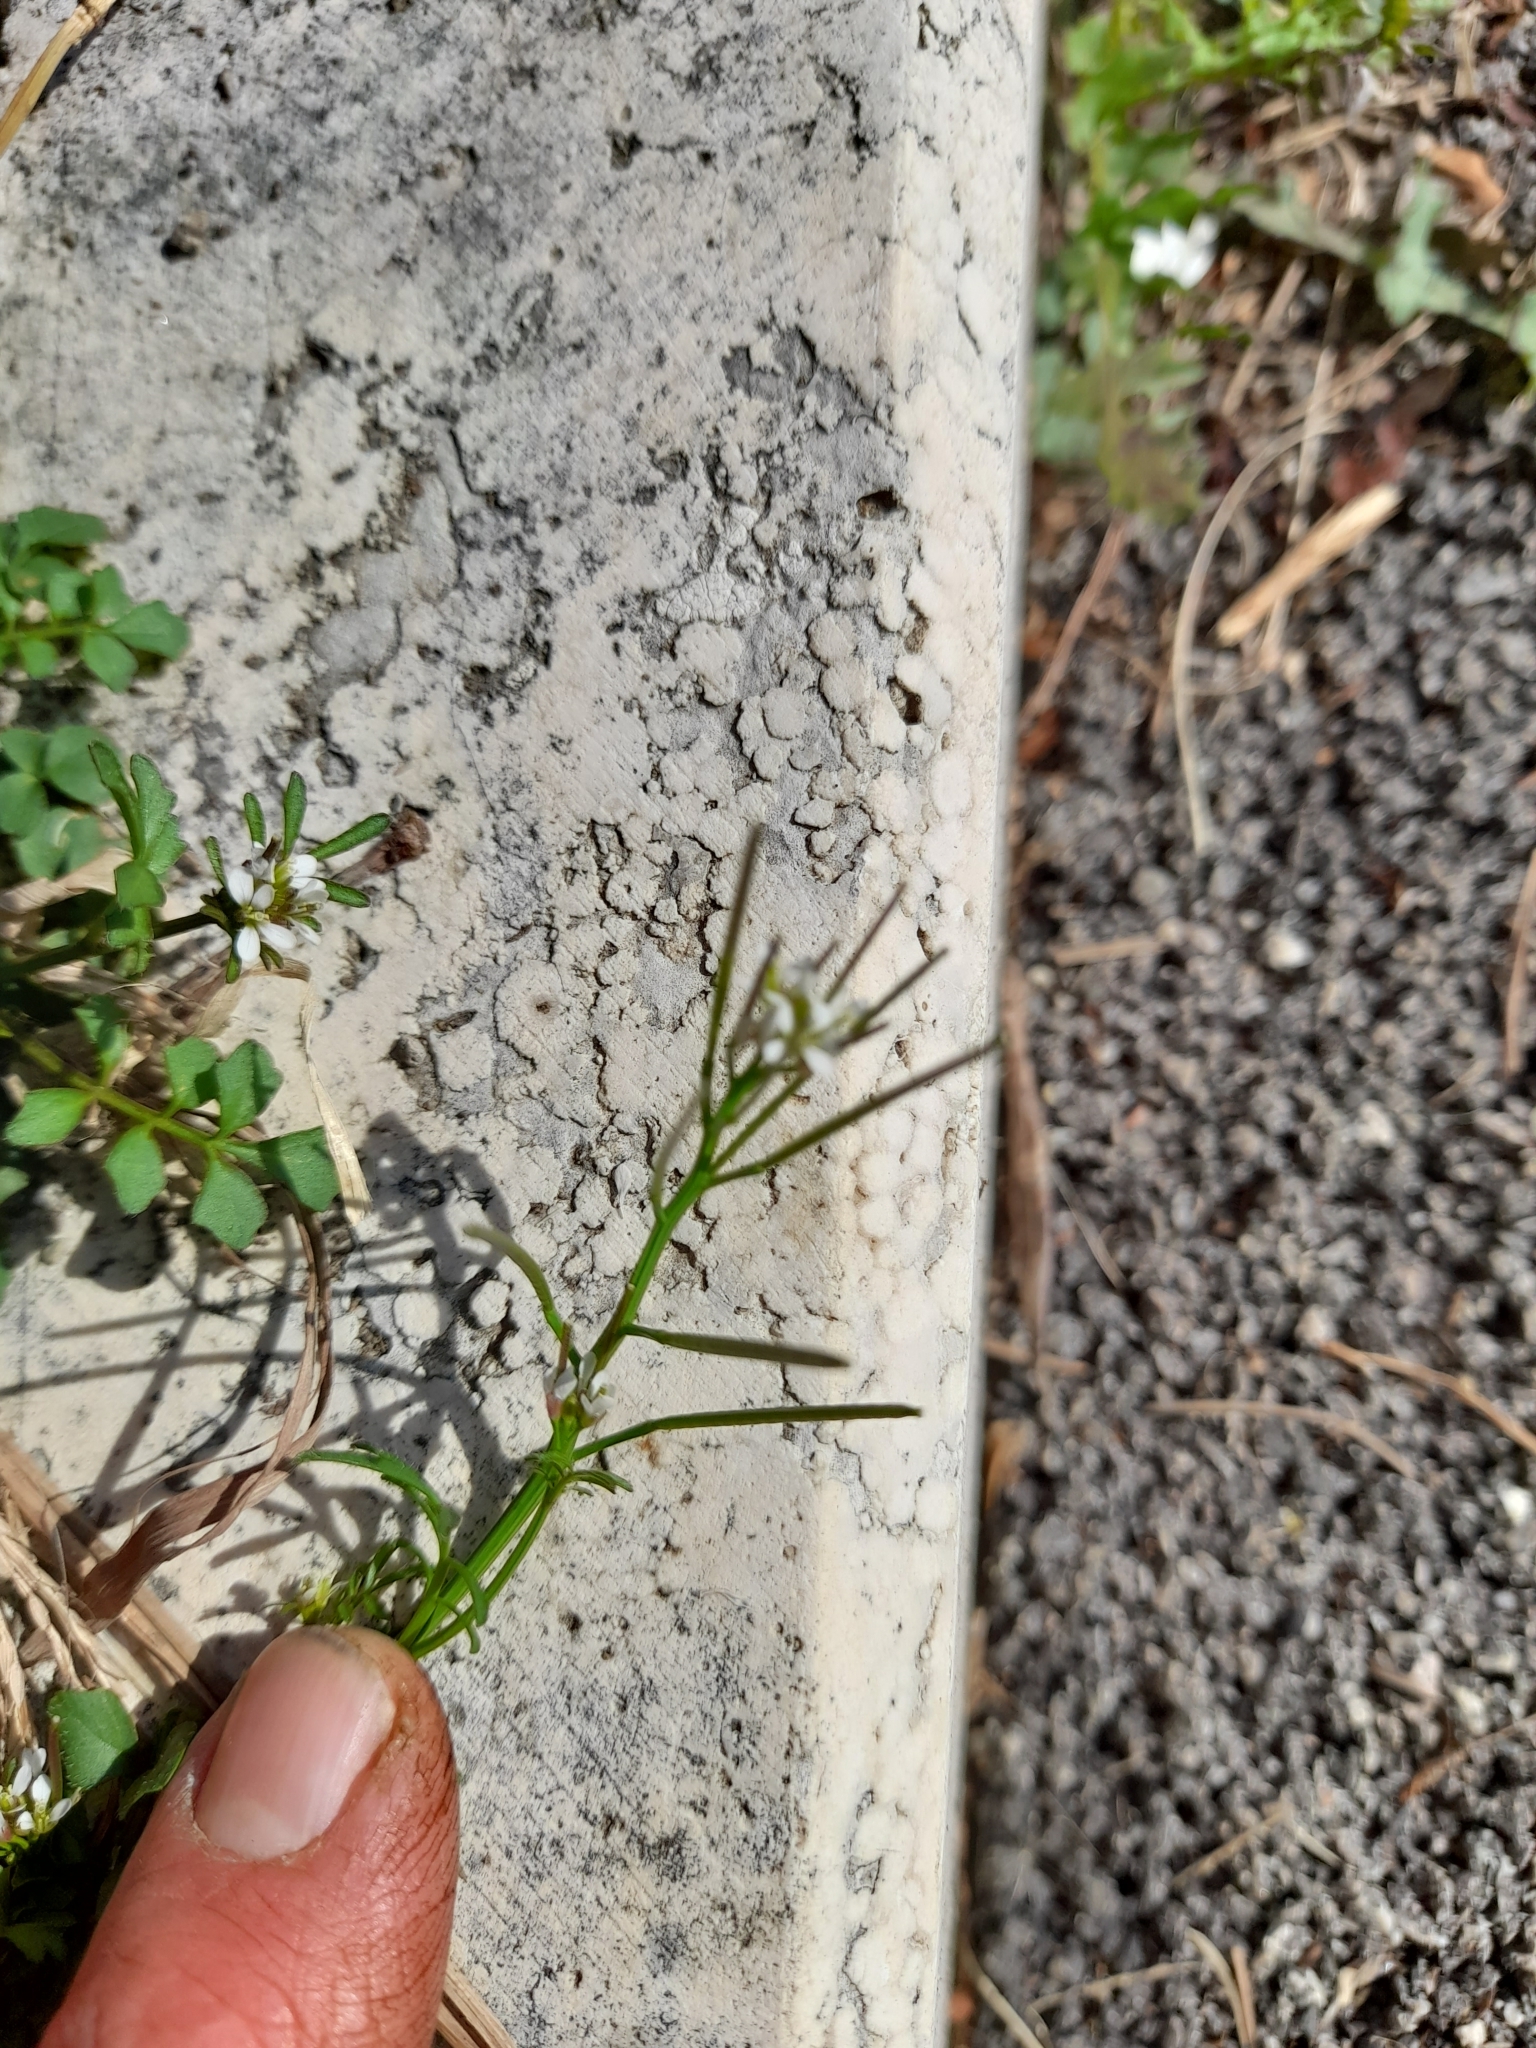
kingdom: Plantae
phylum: Tracheophyta
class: Magnoliopsida
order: Brassicales
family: Brassicaceae
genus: Cardamine
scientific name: Cardamine hirsuta
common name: Hairy bittercress
